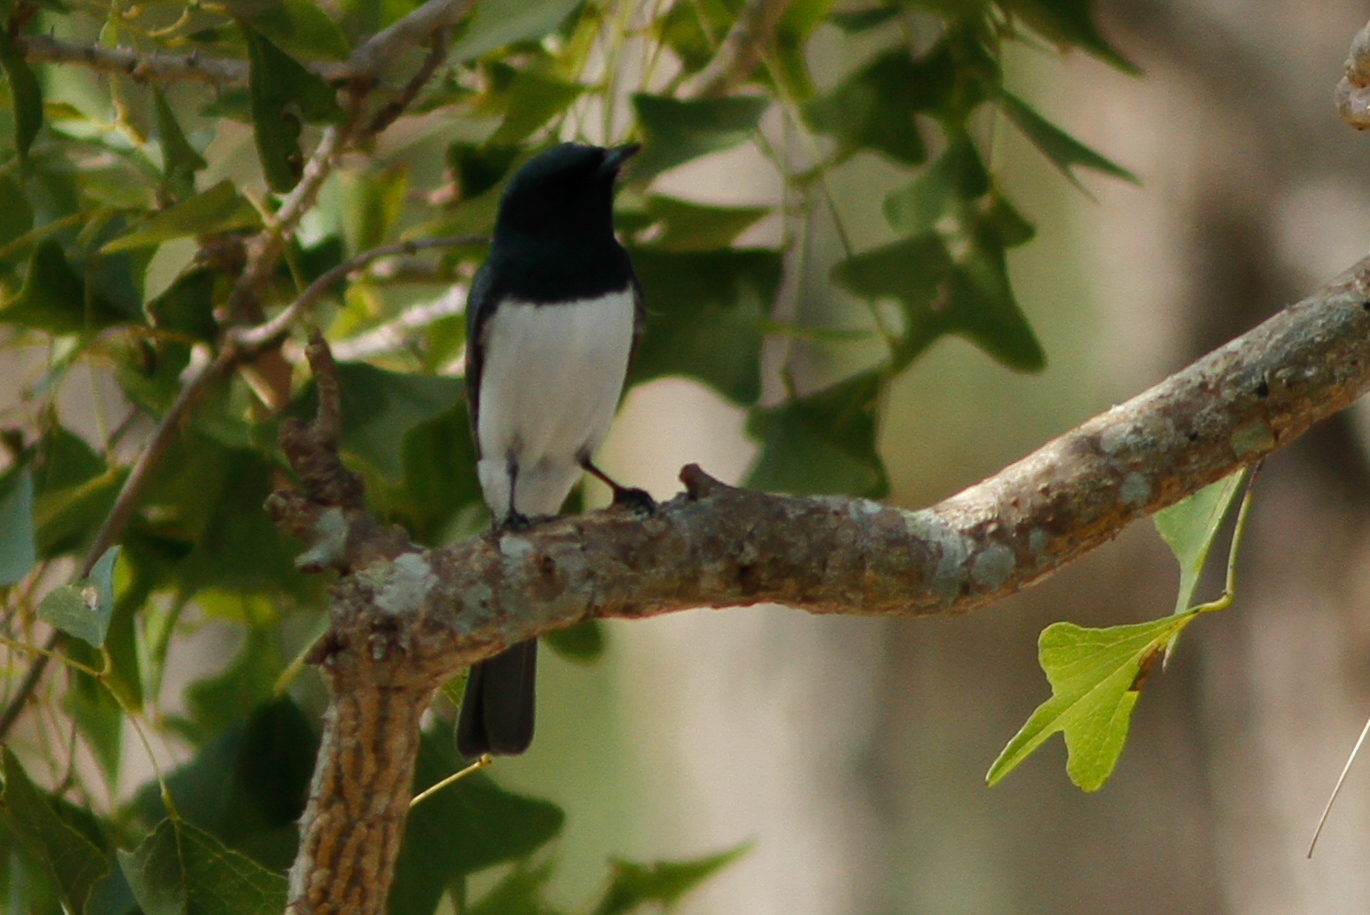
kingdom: Animalia
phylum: Chordata
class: Aves
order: Passeriformes
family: Monarchidae
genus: Myiagra
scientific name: Myiagra cyanoleuca
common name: Satin flycatcher
